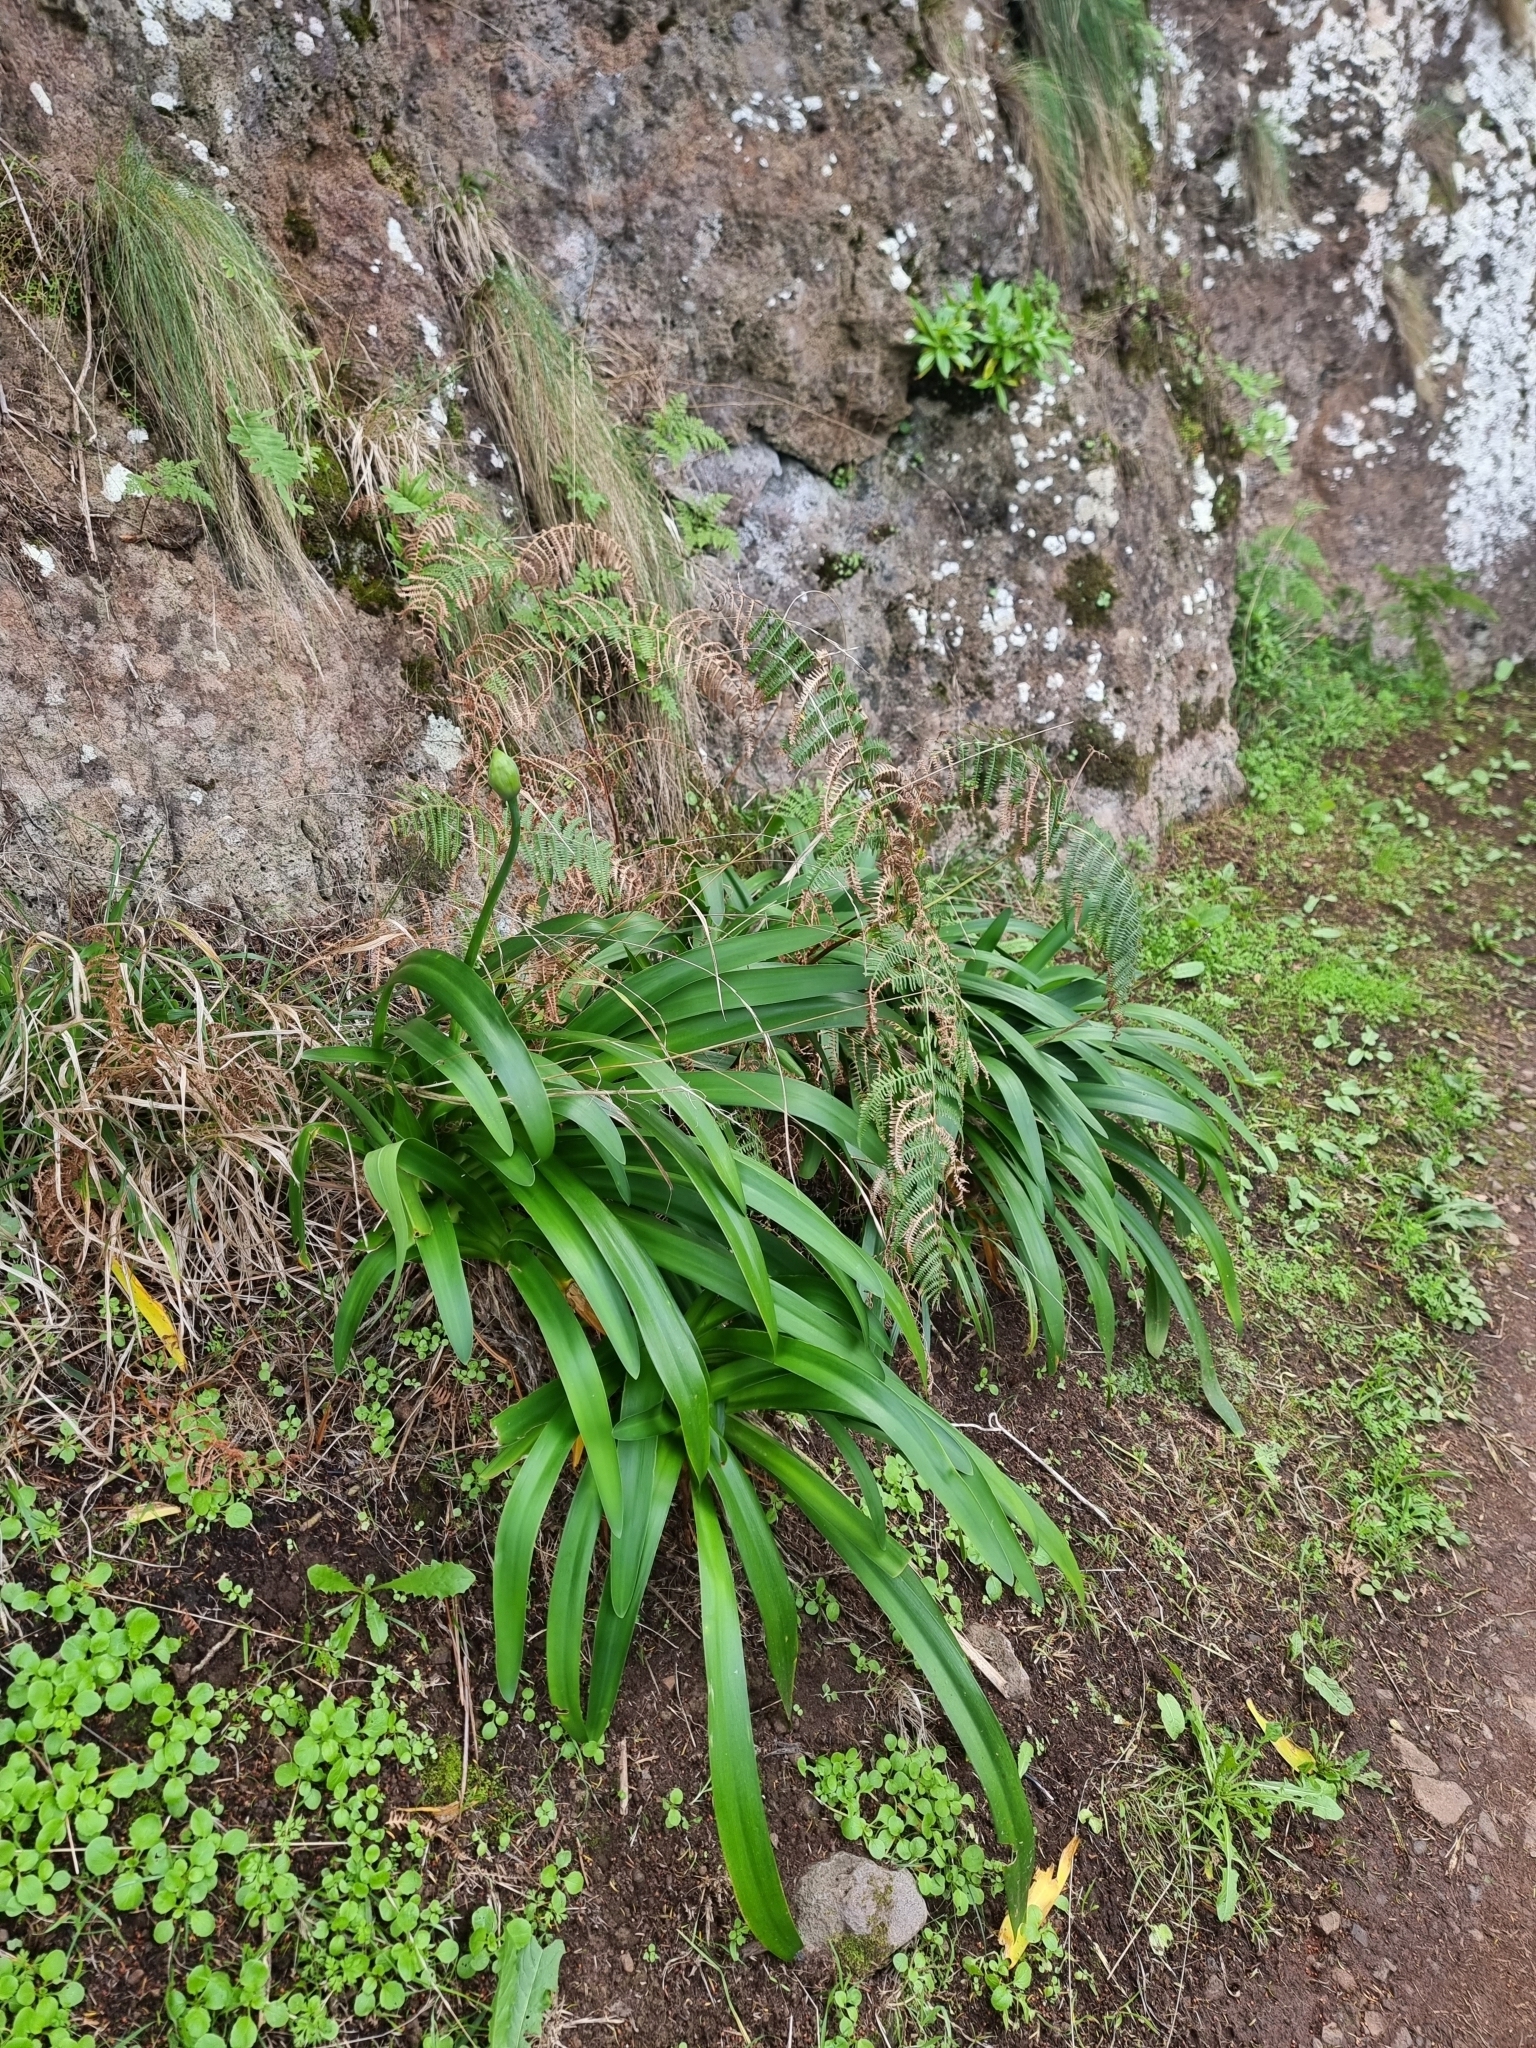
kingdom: Plantae
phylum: Tracheophyta
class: Liliopsida
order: Asparagales
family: Amaryllidaceae
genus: Agapanthus
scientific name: Agapanthus praecox
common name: African-lily
